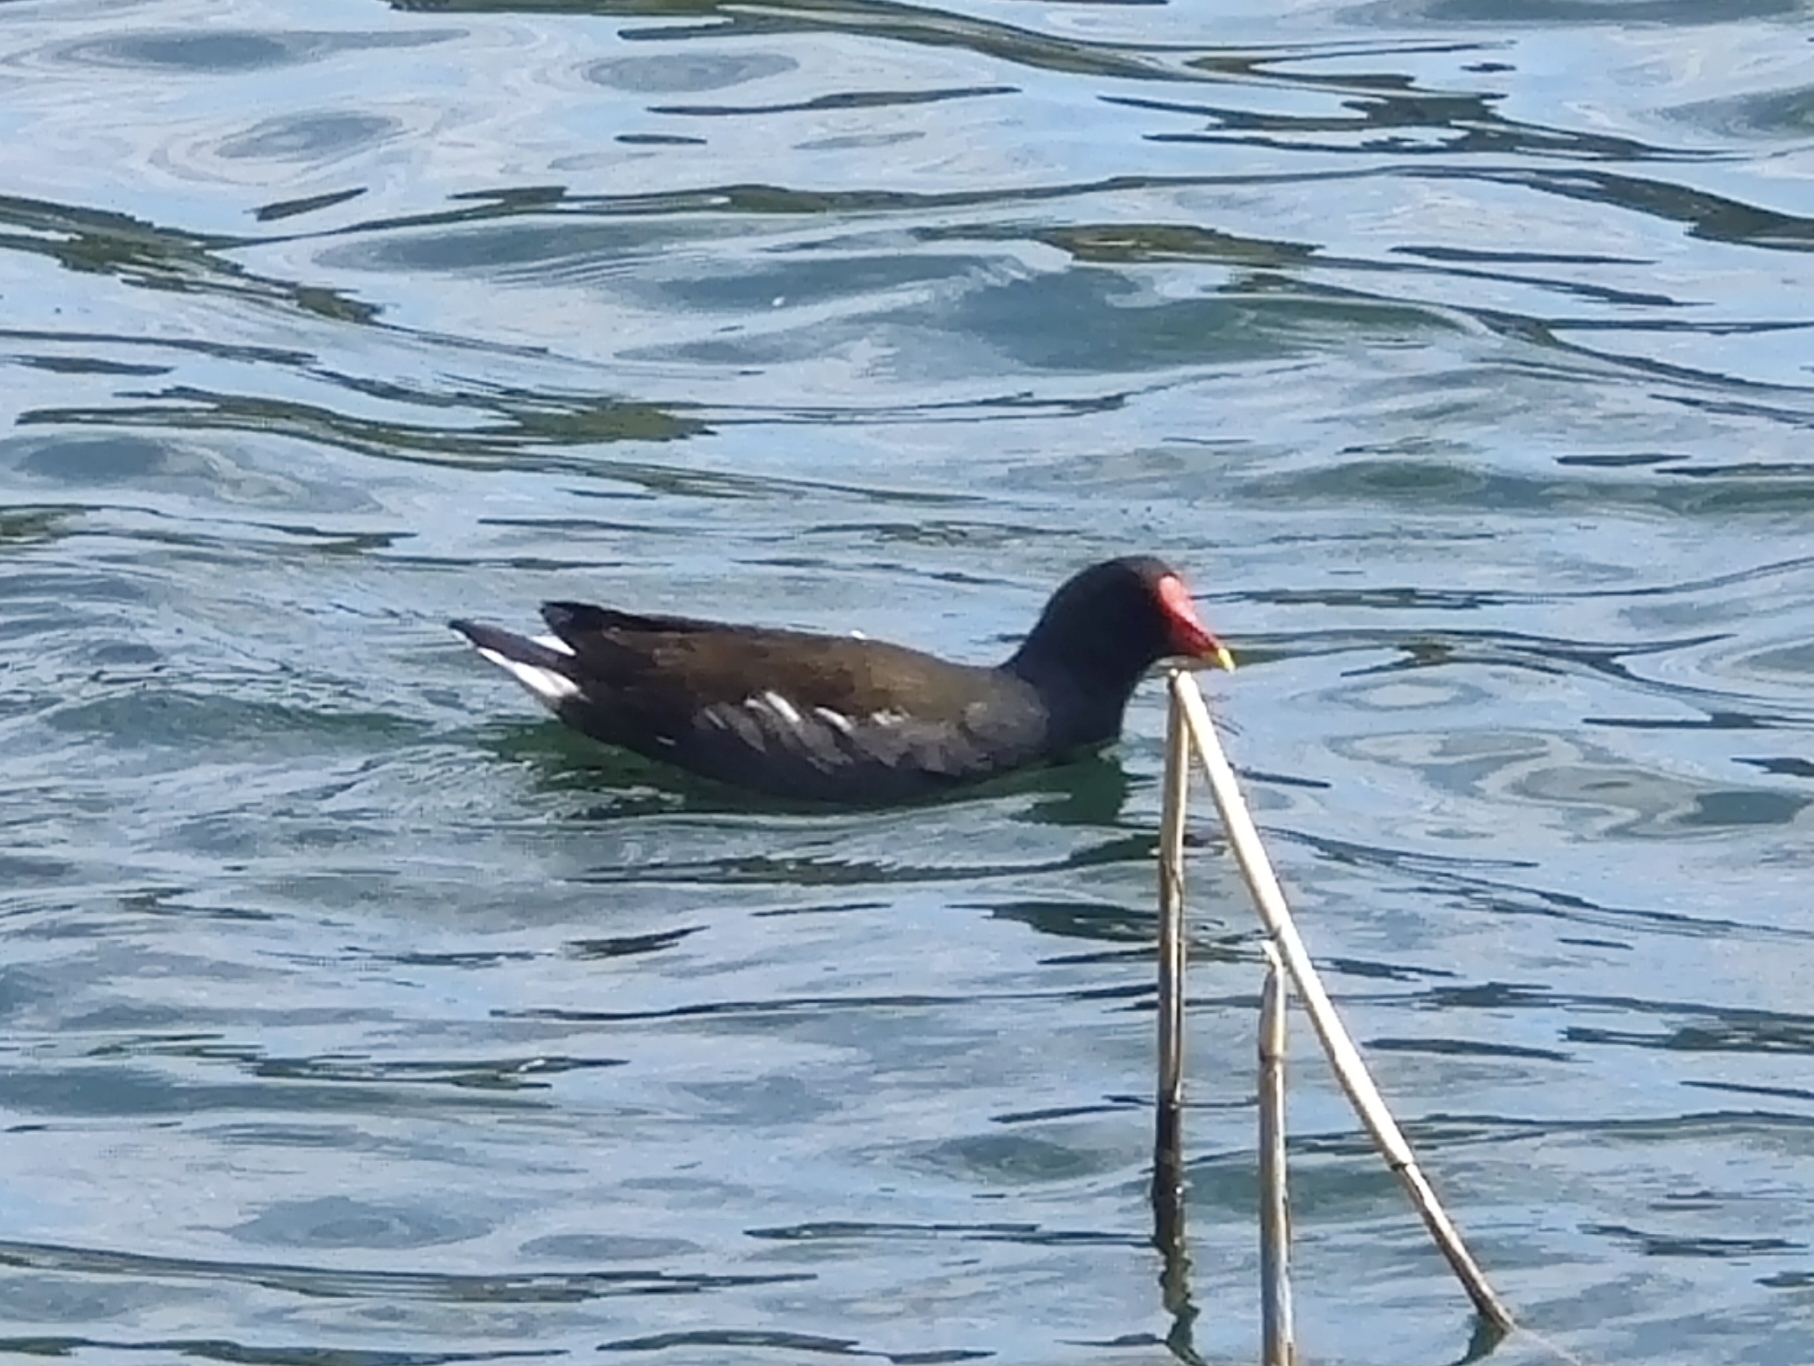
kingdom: Animalia
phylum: Chordata
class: Aves
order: Gruiformes
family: Rallidae
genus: Gallinula
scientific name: Gallinula chloropus
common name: Common moorhen
